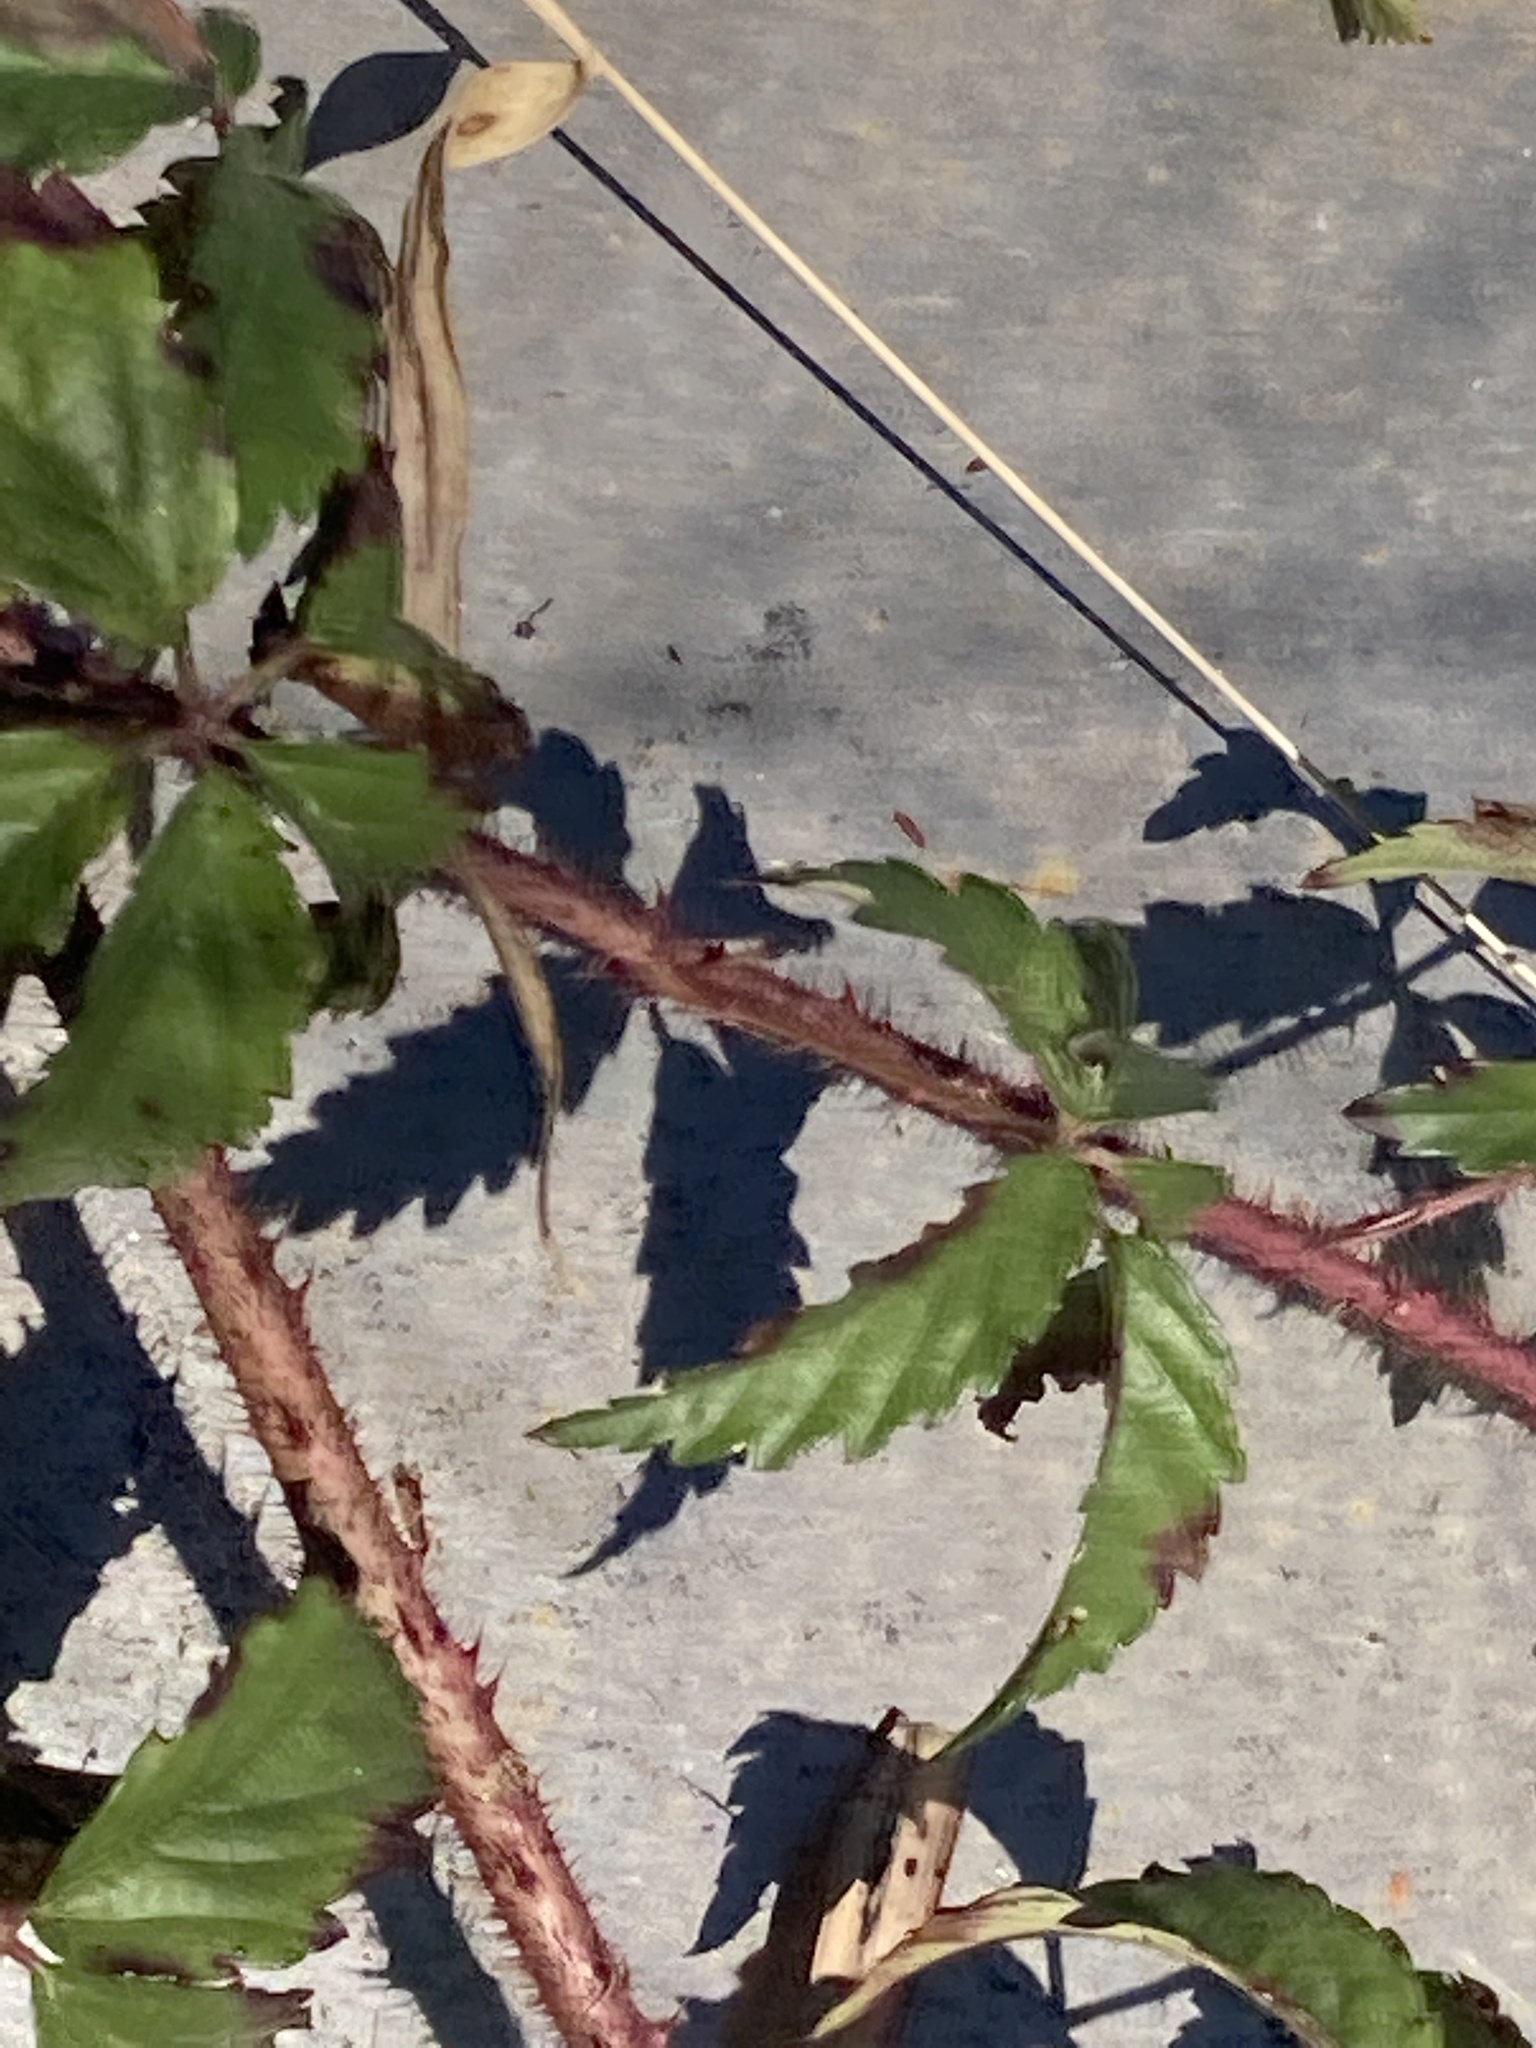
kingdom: Plantae
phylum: Tracheophyta
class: Magnoliopsida
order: Rosales
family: Rosaceae
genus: Rubus
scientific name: Rubus trivialis
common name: Southern dewberry
